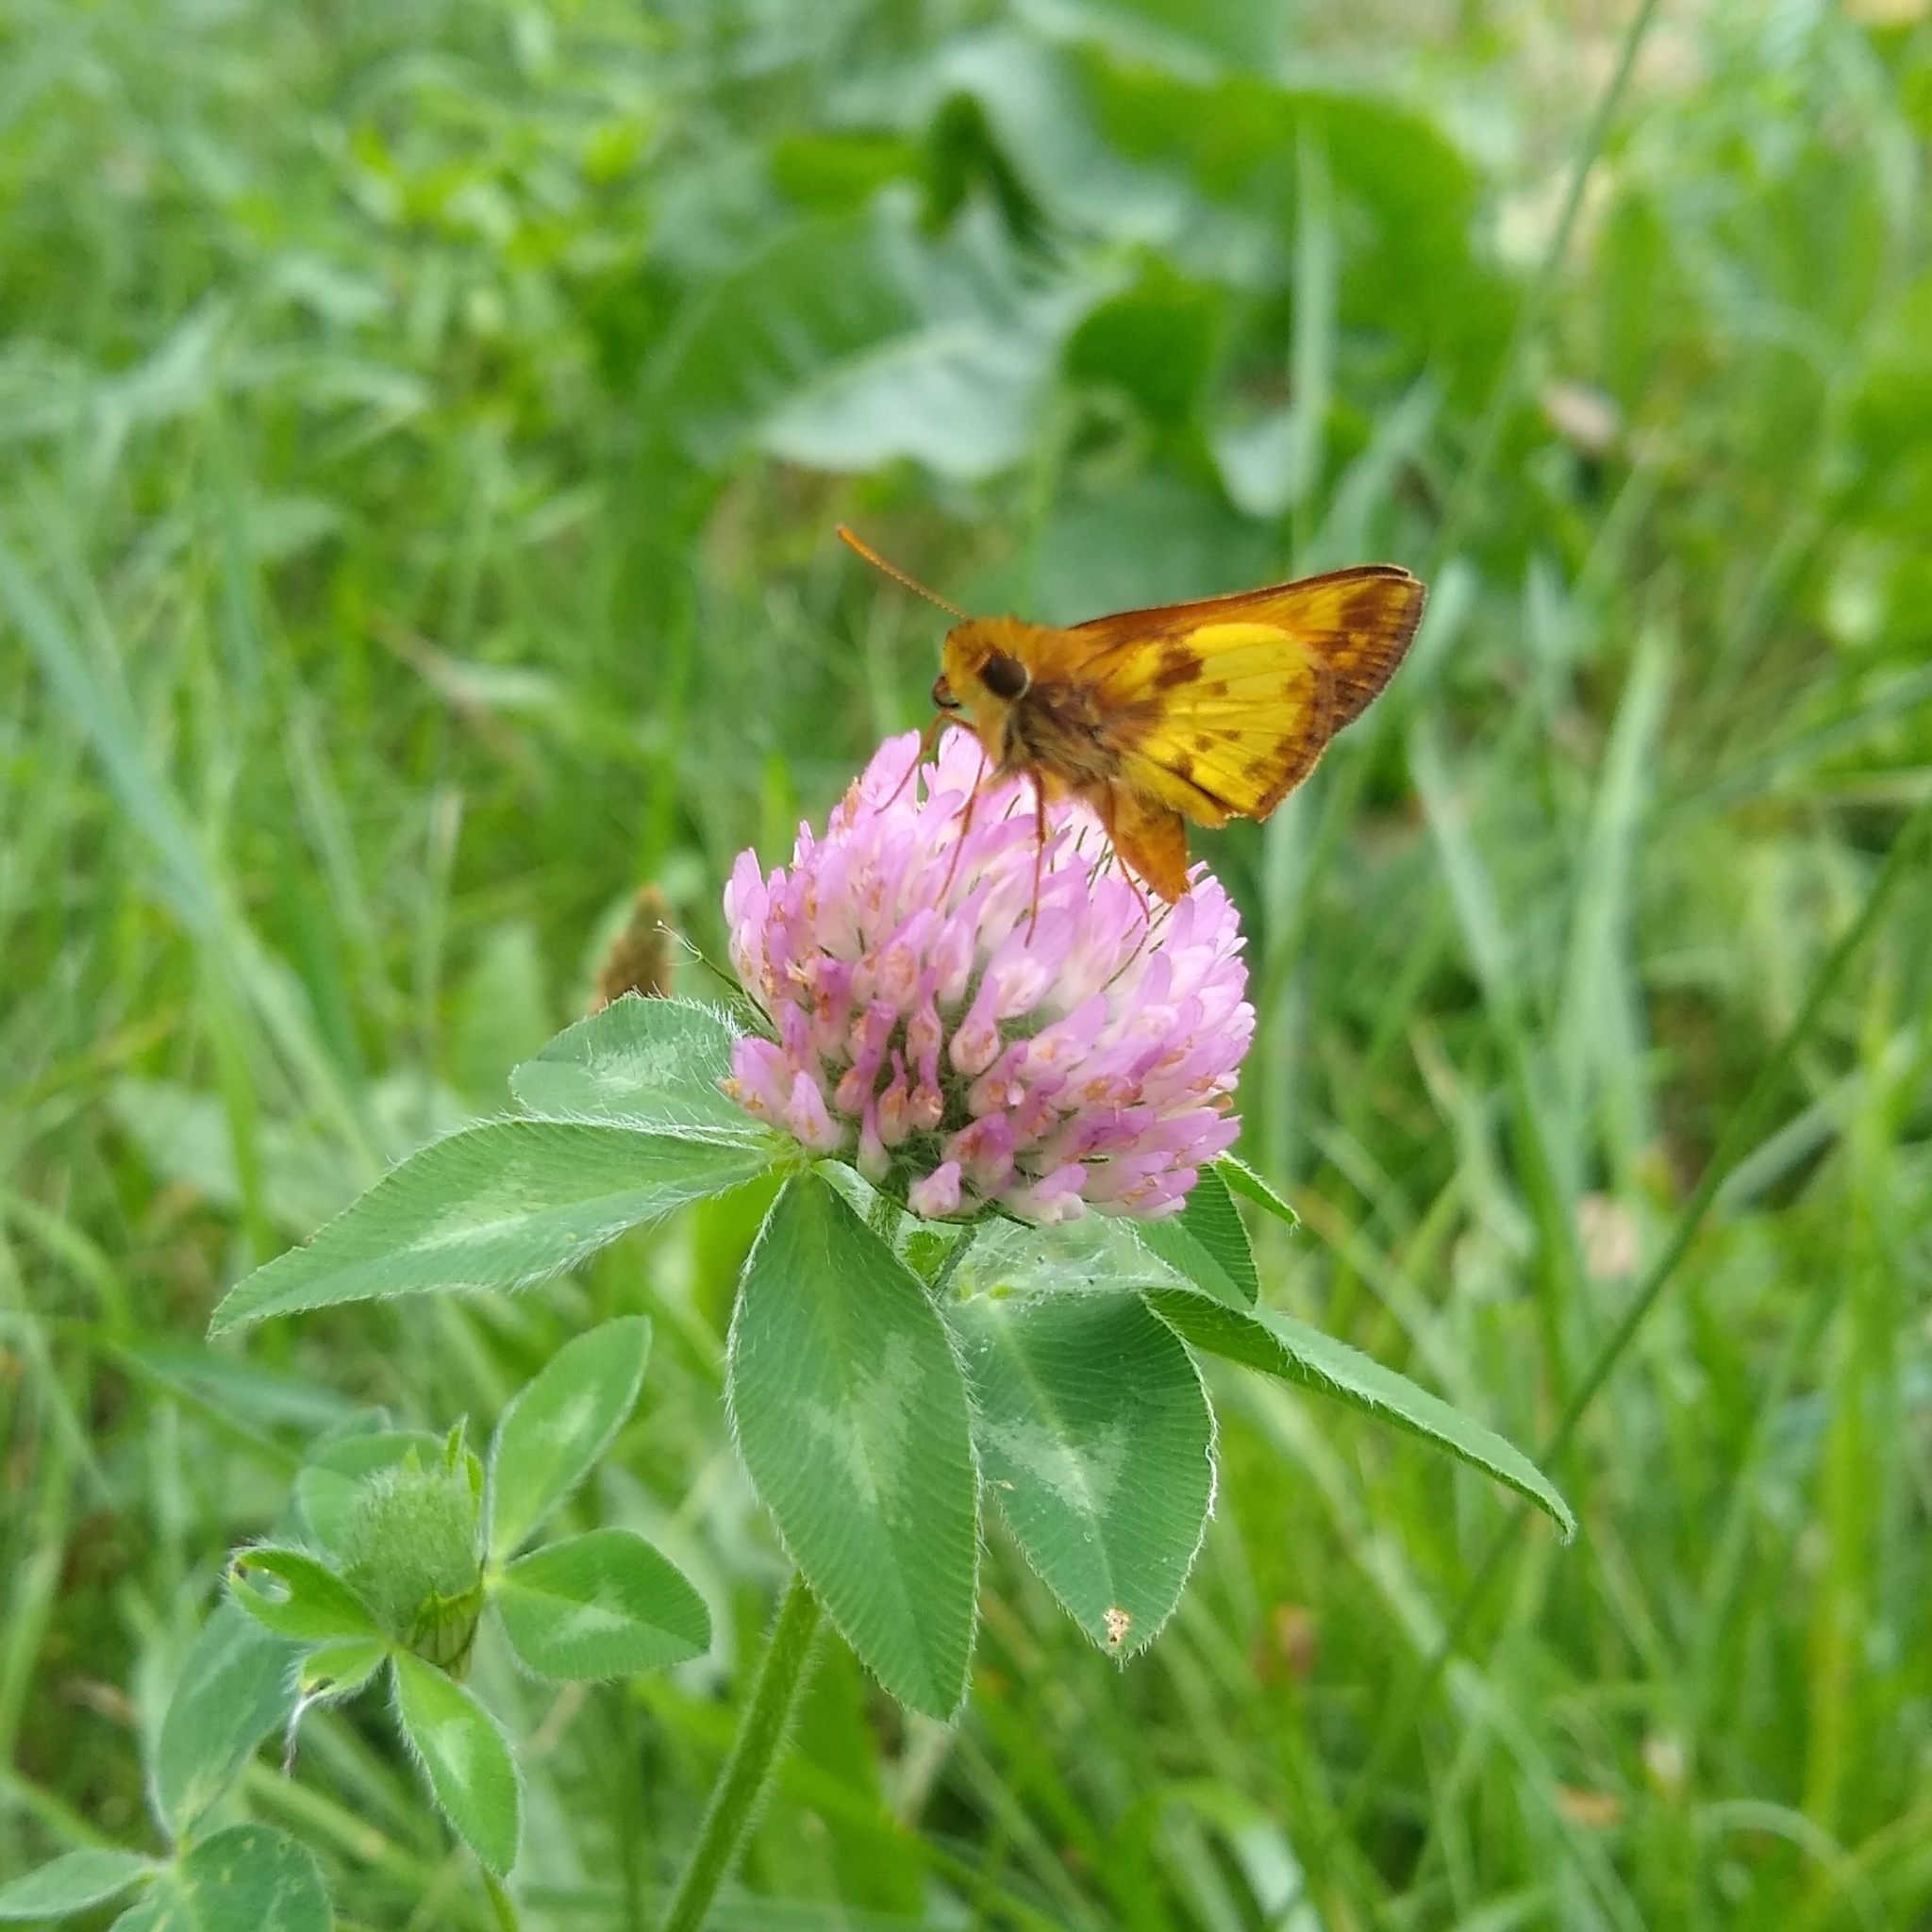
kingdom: Animalia
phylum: Arthropoda
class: Insecta
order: Lepidoptera
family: Hesperiidae
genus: Lon
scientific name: Lon zabulon
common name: Zabulon skipper
